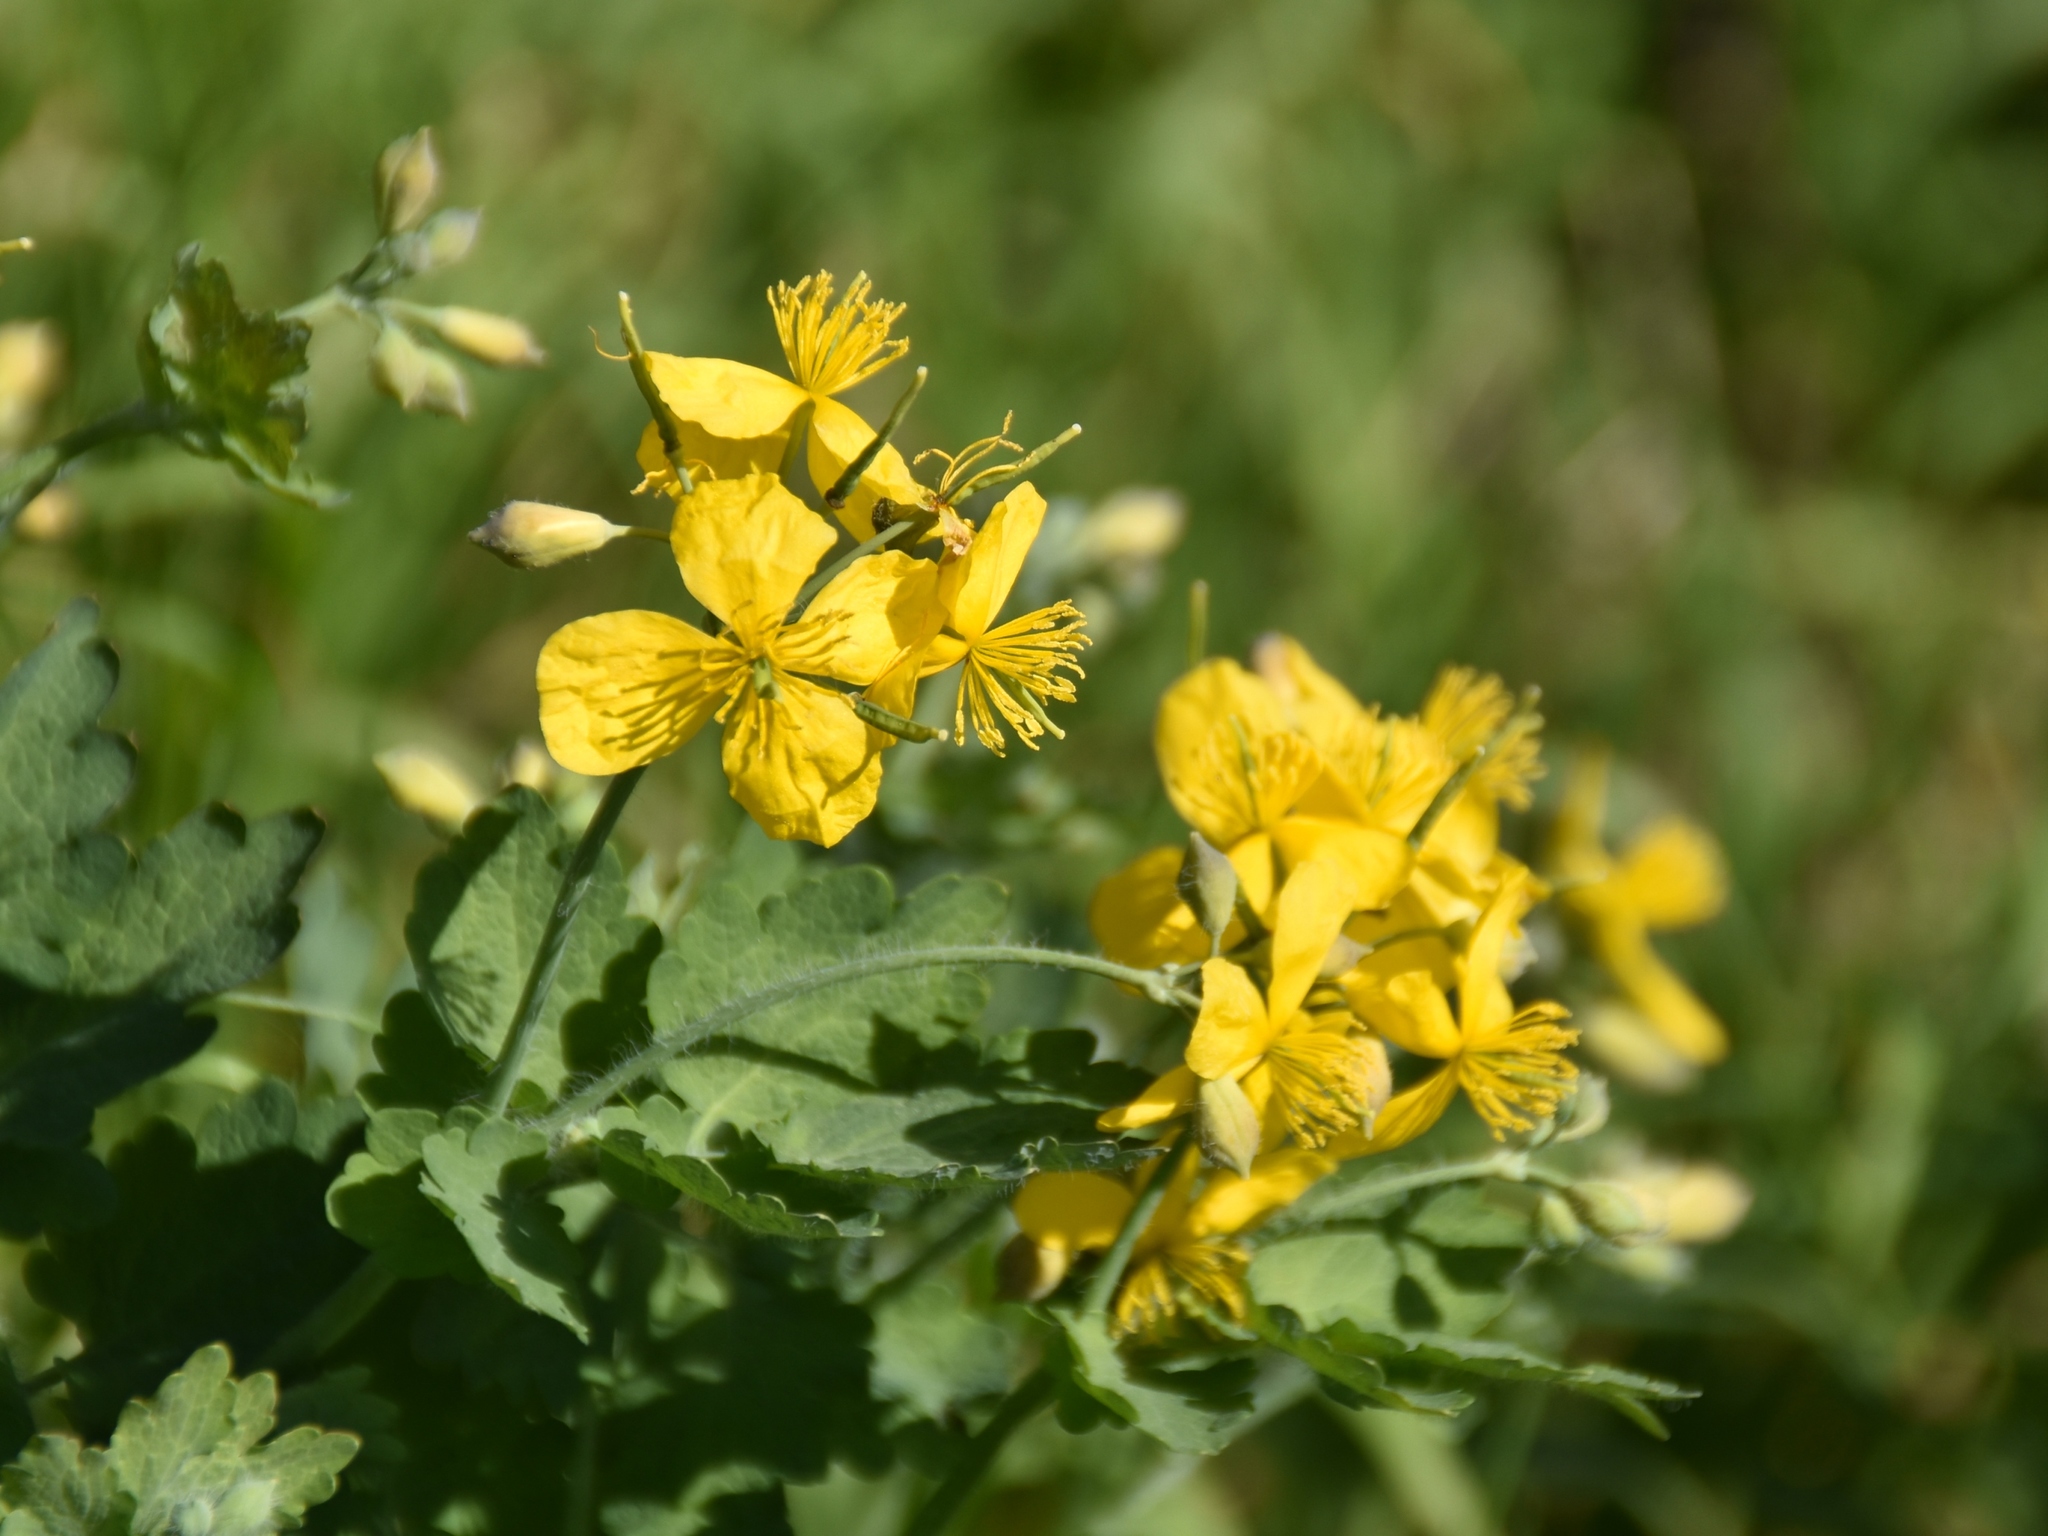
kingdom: Plantae
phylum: Tracheophyta
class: Magnoliopsida
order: Ranunculales
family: Papaveraceae
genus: Chelidonium
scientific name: Chelidonium majus
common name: Greater celandine
